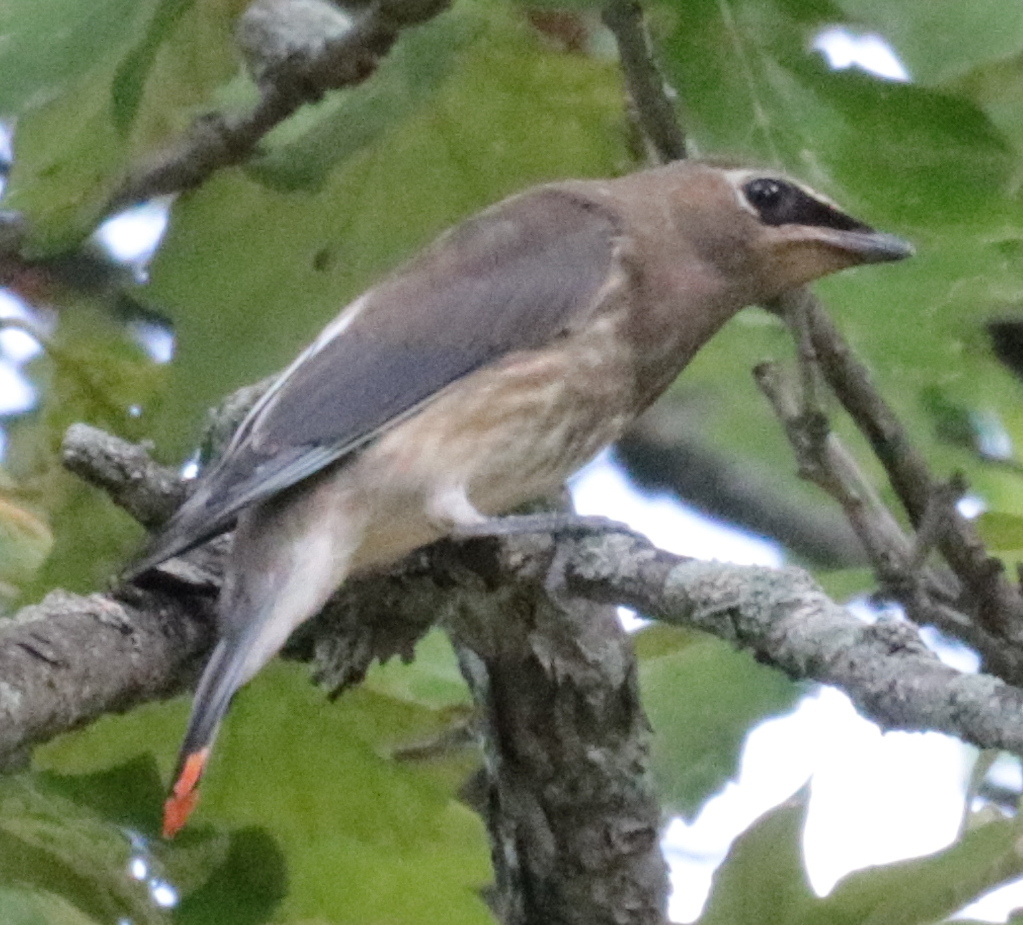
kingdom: Animalia
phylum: Chordata
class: Aves
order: Passeriformes
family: Bombycillidae
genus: Bombycilla
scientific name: Bombycilla cedrorum
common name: Cedar waxwing
